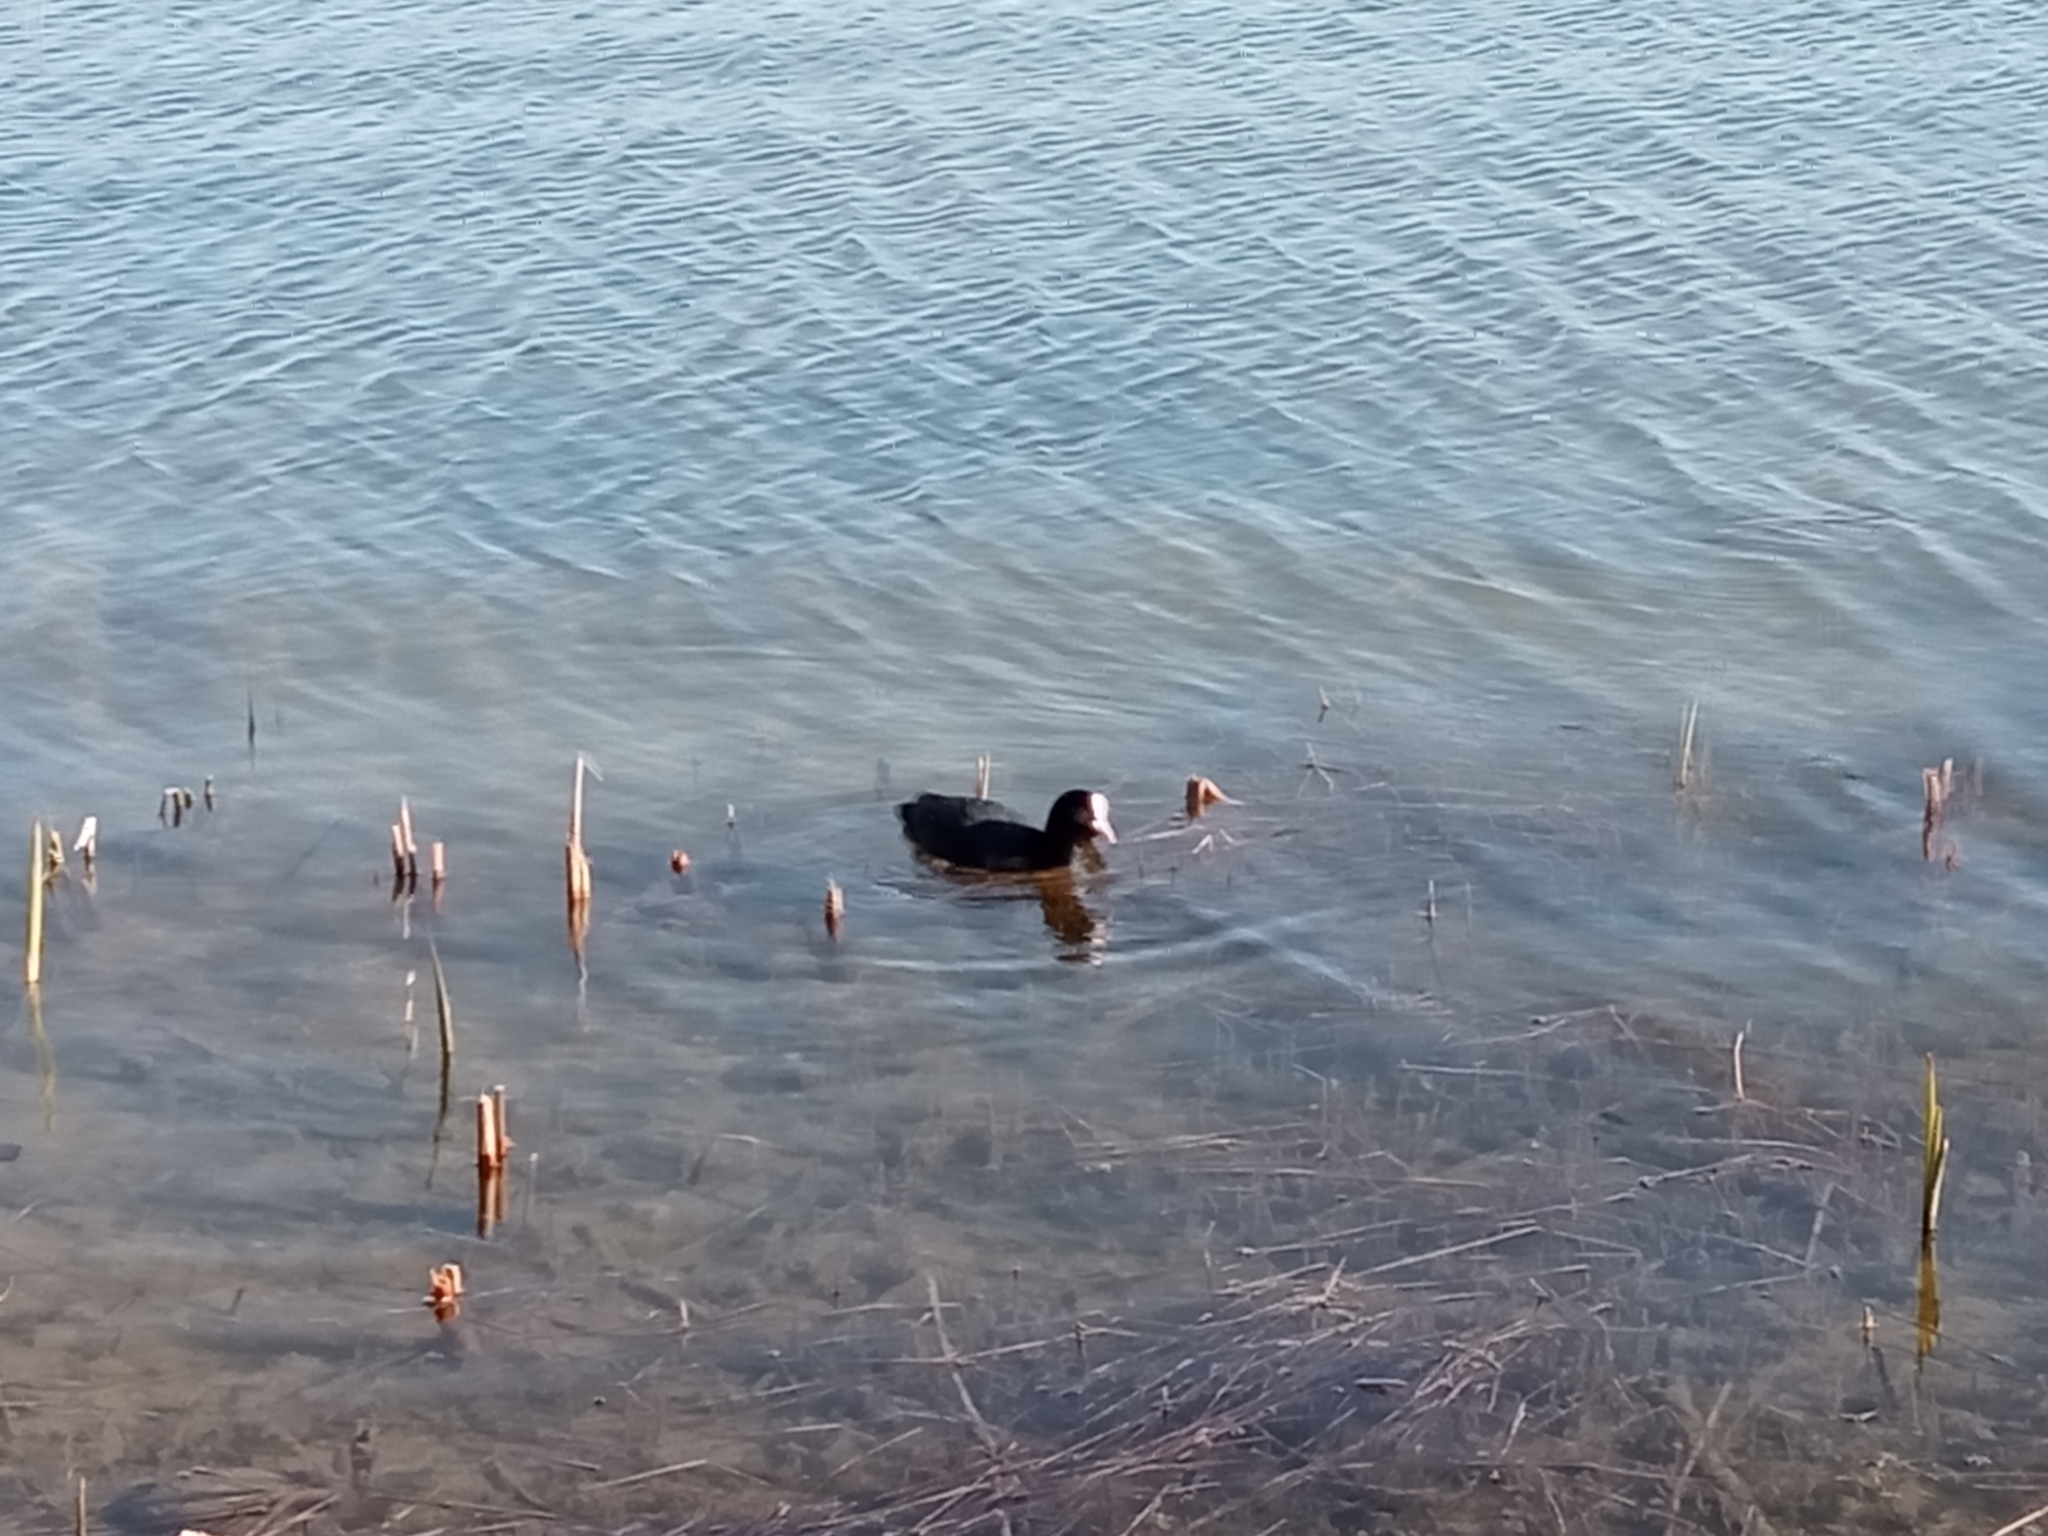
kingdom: Animalia
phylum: Chordata
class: Aves
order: Gruiformes
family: Rallidae
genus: Fulica
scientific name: Fulica atra
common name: Eurasian coot
